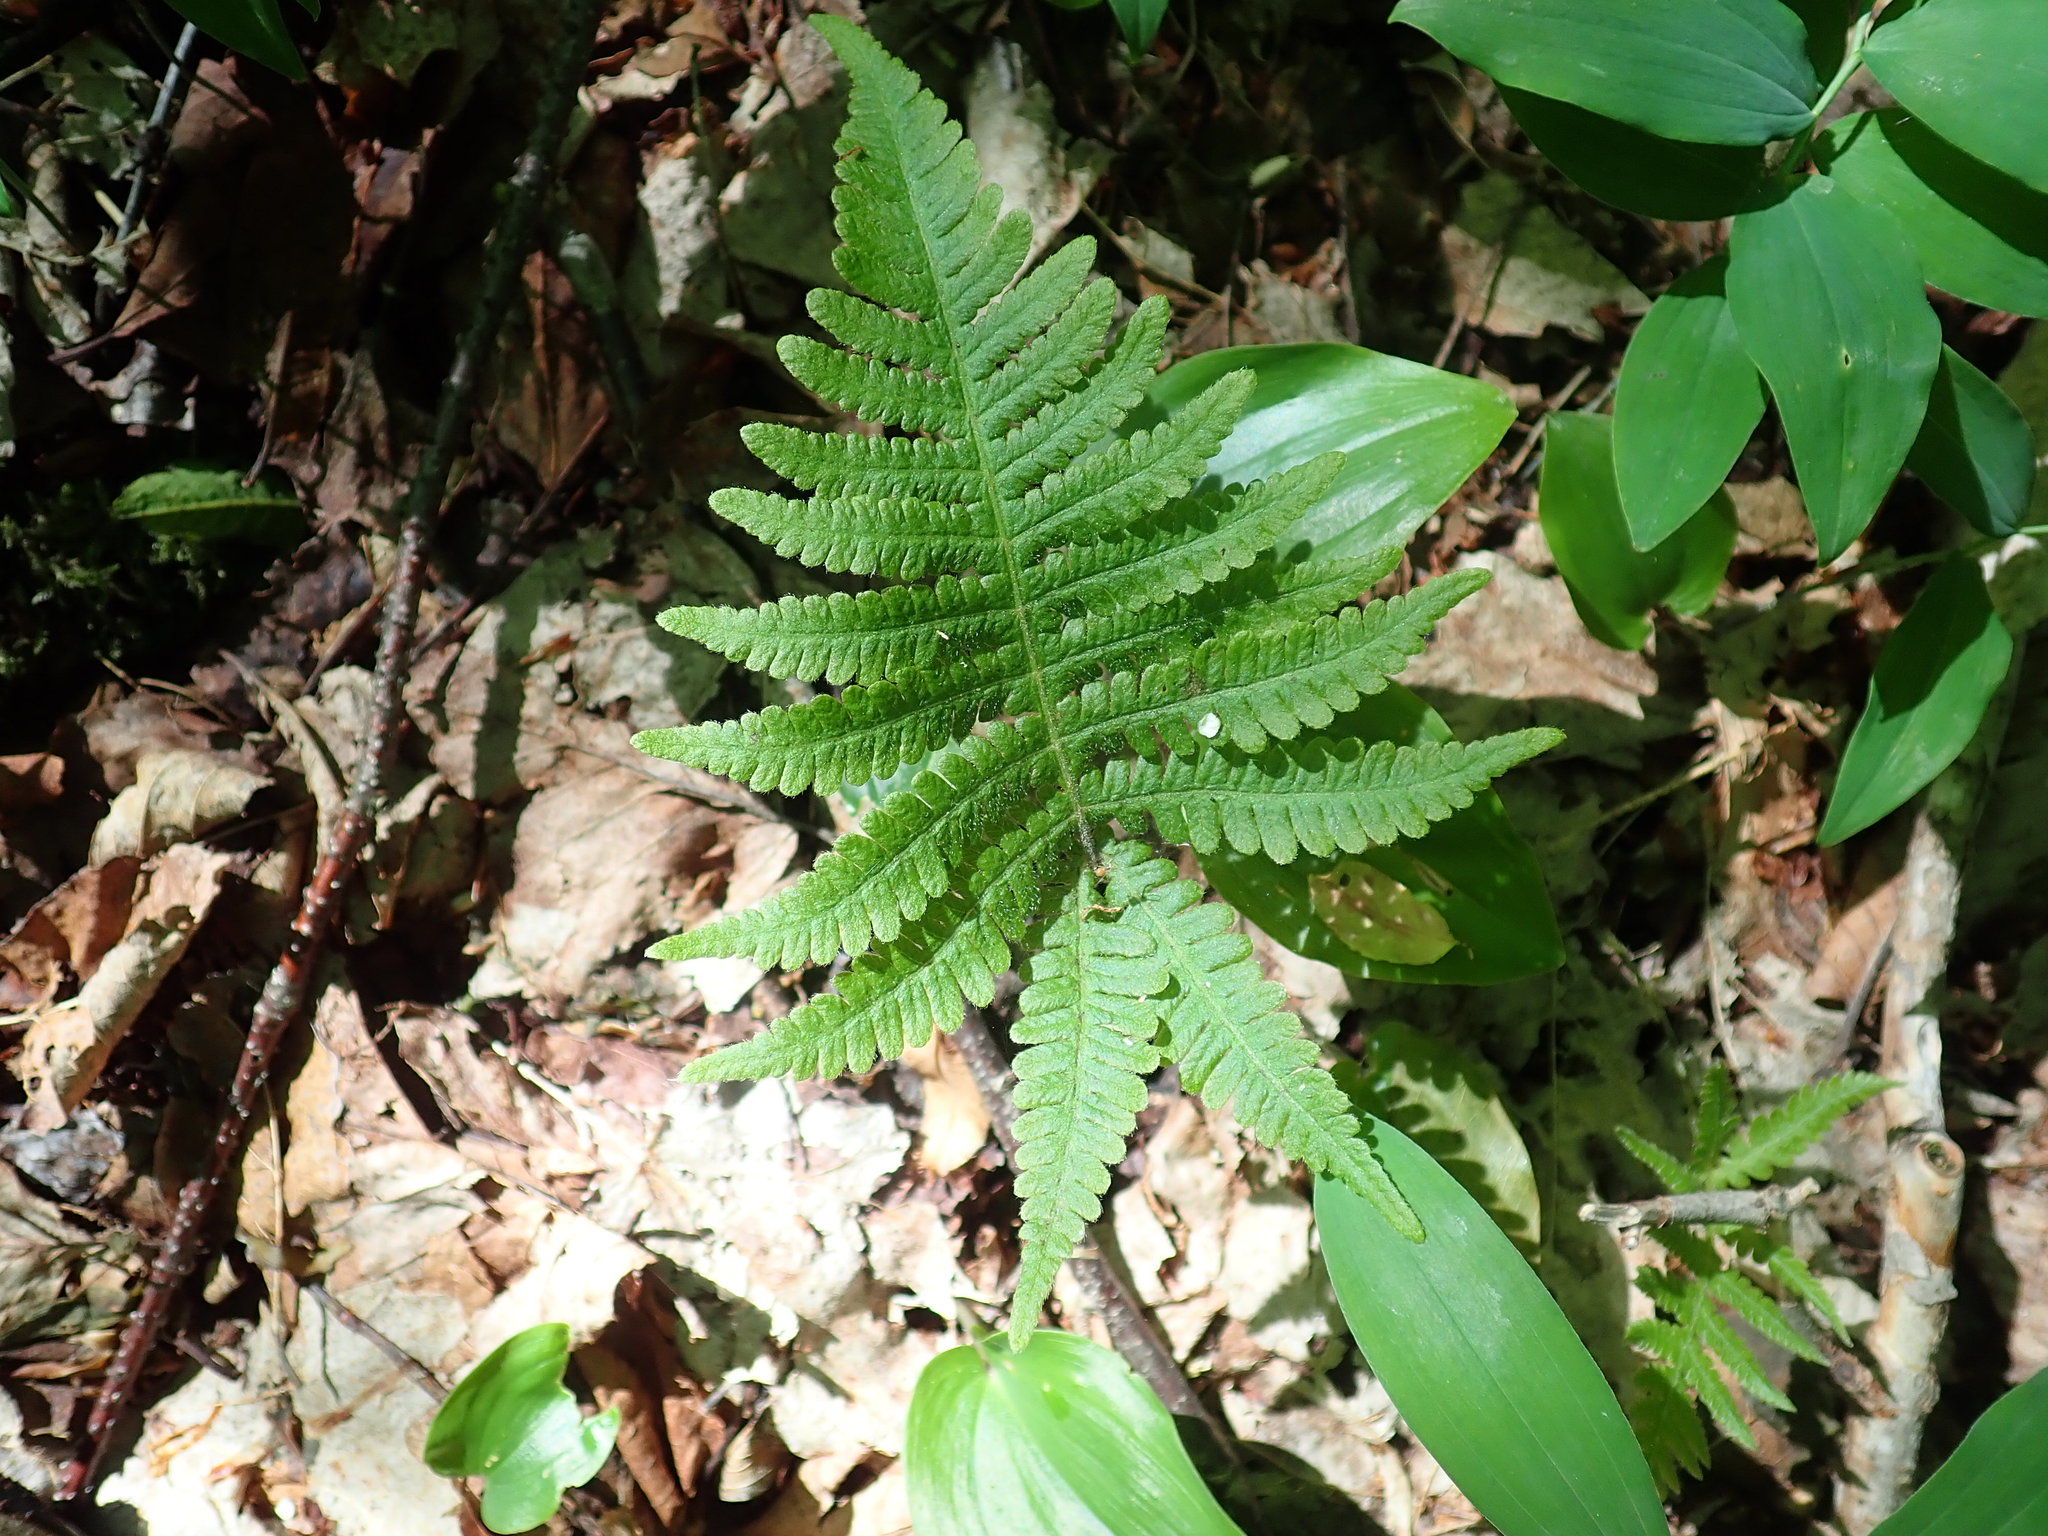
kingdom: Plantae
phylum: Tracheophyta
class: Polypodiopsida
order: Polypodiales
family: Thelypteridaceae
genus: Phegopteris
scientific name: Phegopteris connectilis
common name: Beech fern
